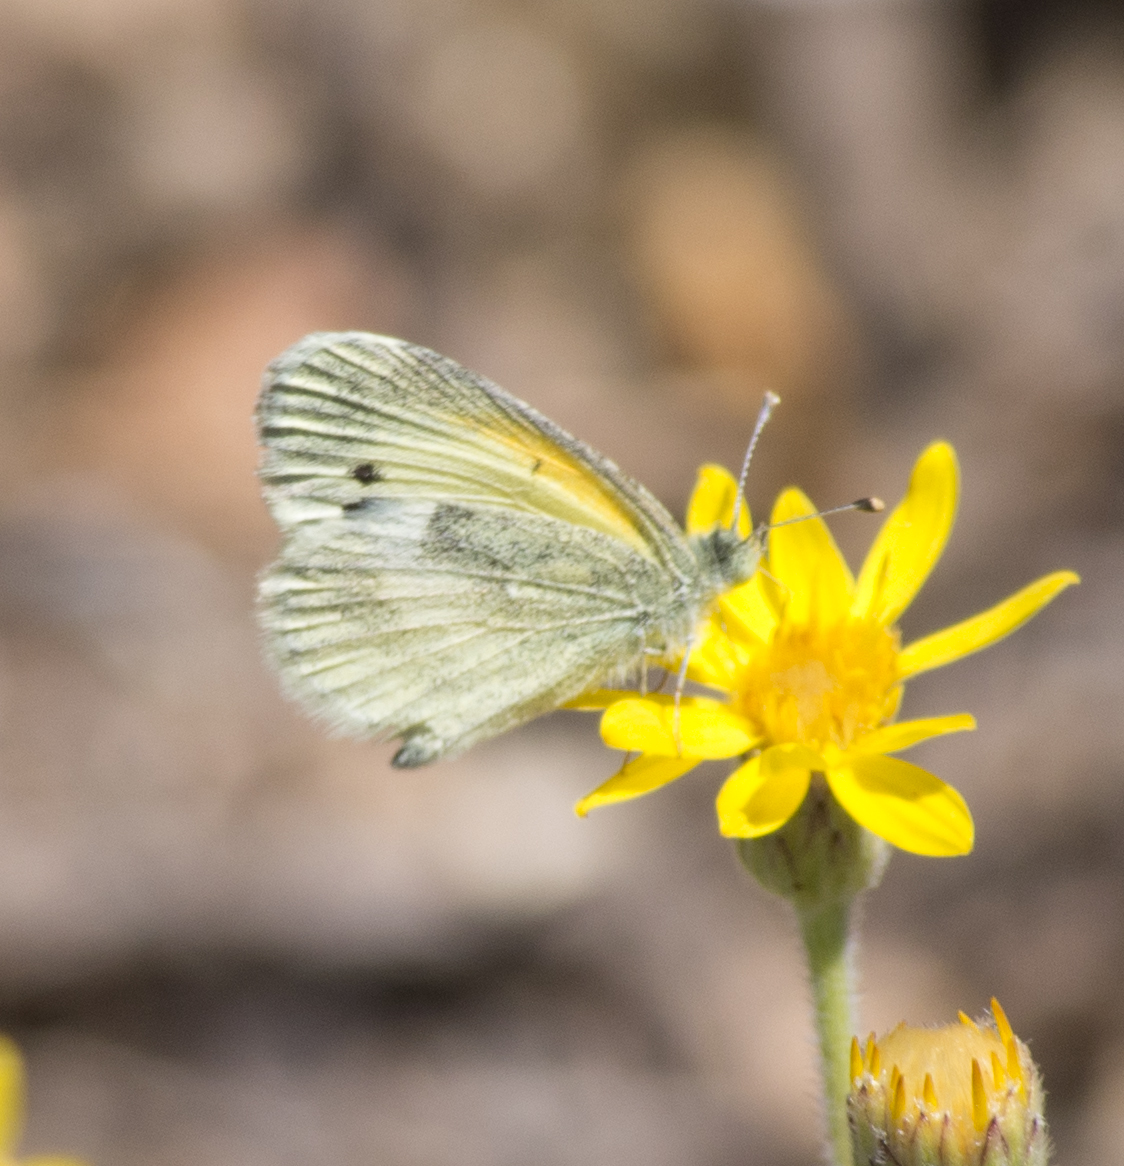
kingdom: Animalia
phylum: Arthropoda
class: Insecta
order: Lepidoptera
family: Pieridae
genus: Nathalis
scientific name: Nathalis iole
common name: Dainty sulphur
